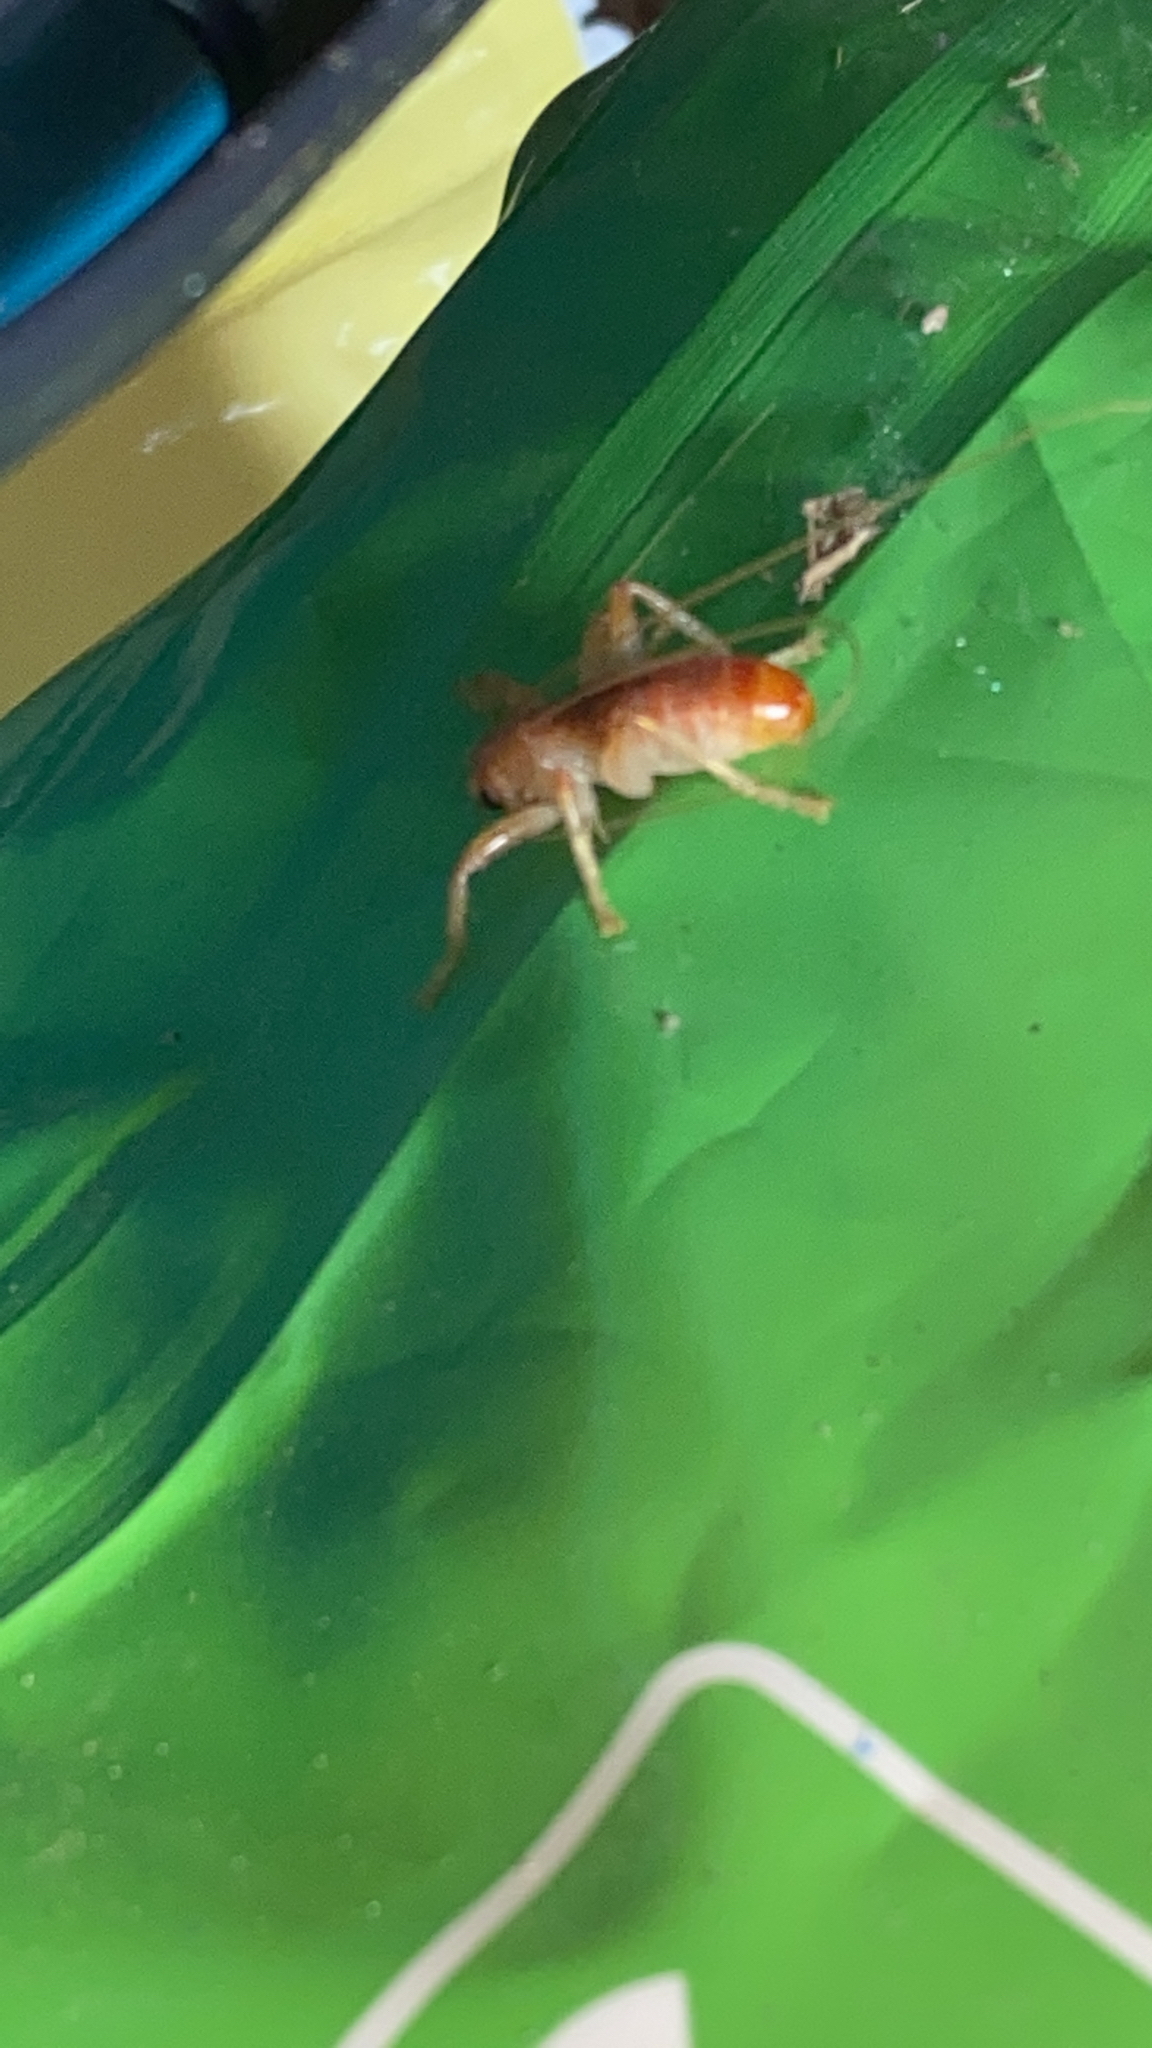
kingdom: Animalia
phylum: Arthropoda
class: Insecta
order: Orthoptera
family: Gryllacrididae
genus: Camptonotus
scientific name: Camptonotus carolinensis
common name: Carolina leaf-roller
